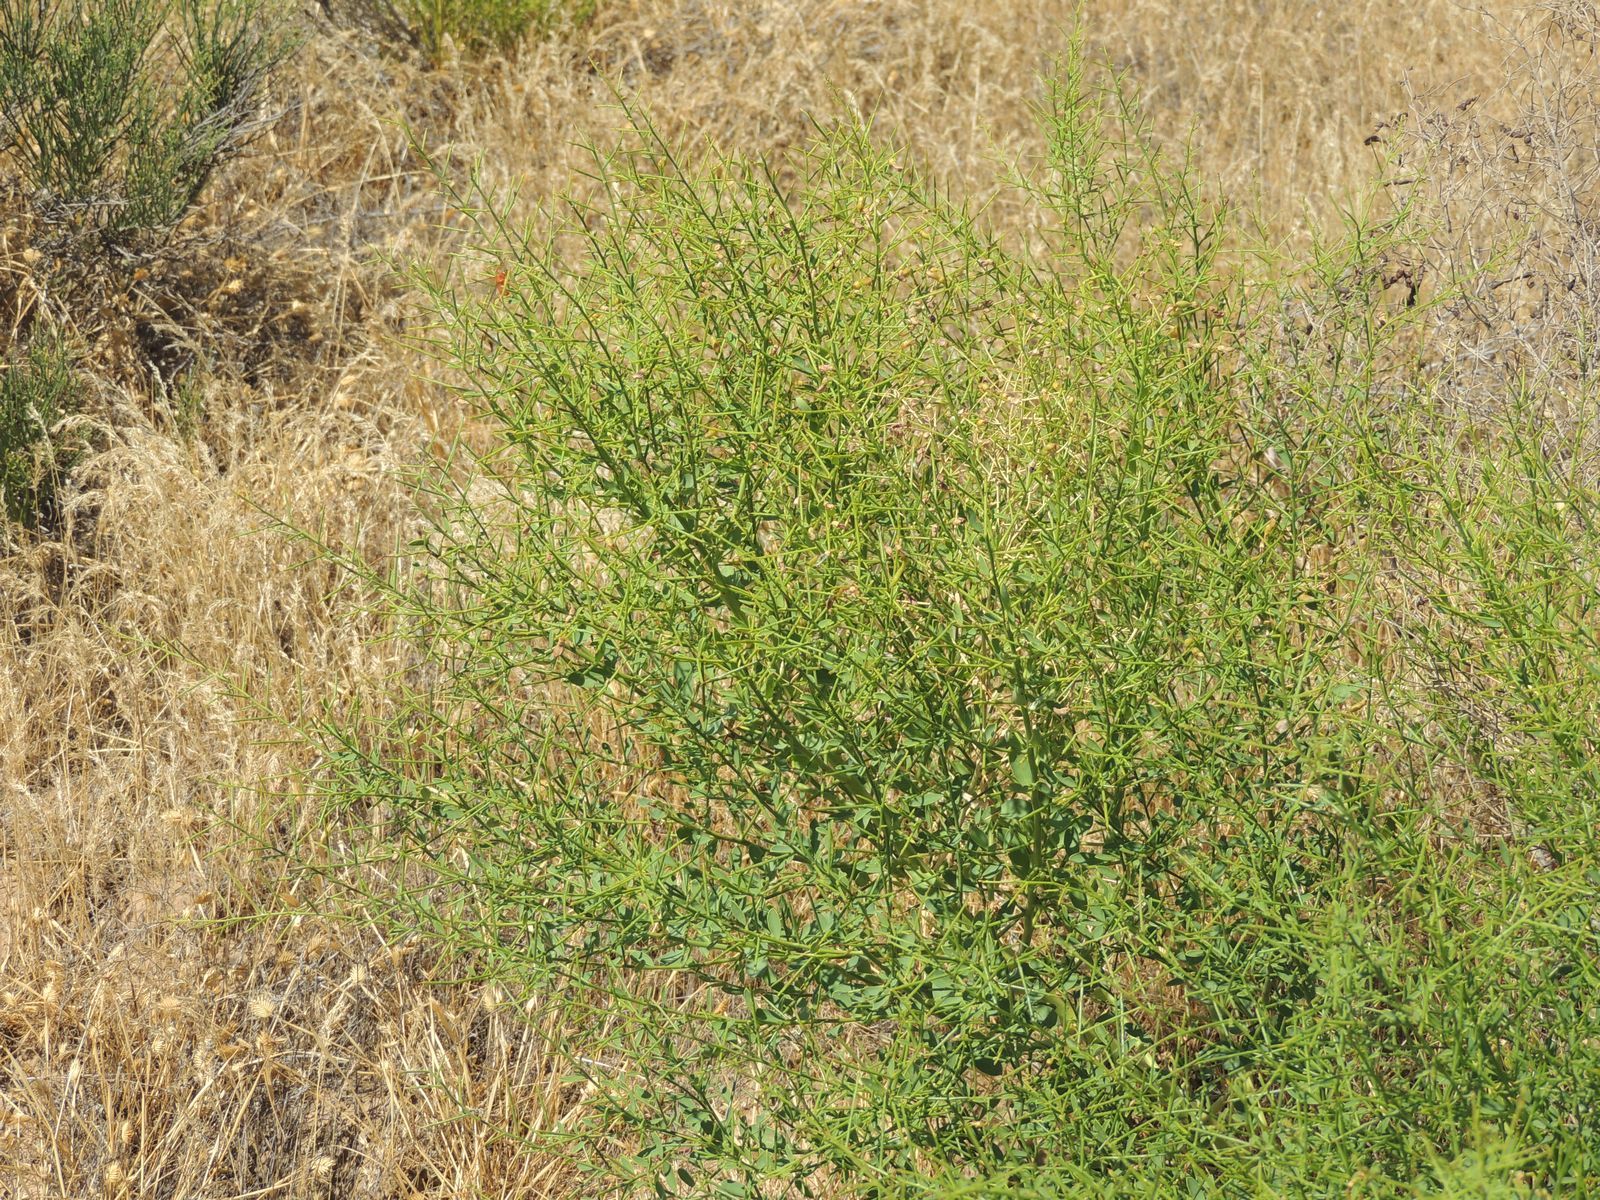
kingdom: Plantae
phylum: Tracheophyta
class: Magnoliopsida
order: Fabales
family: Fabaceae
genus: Alhagi
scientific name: Alhagi pseudalhagi
